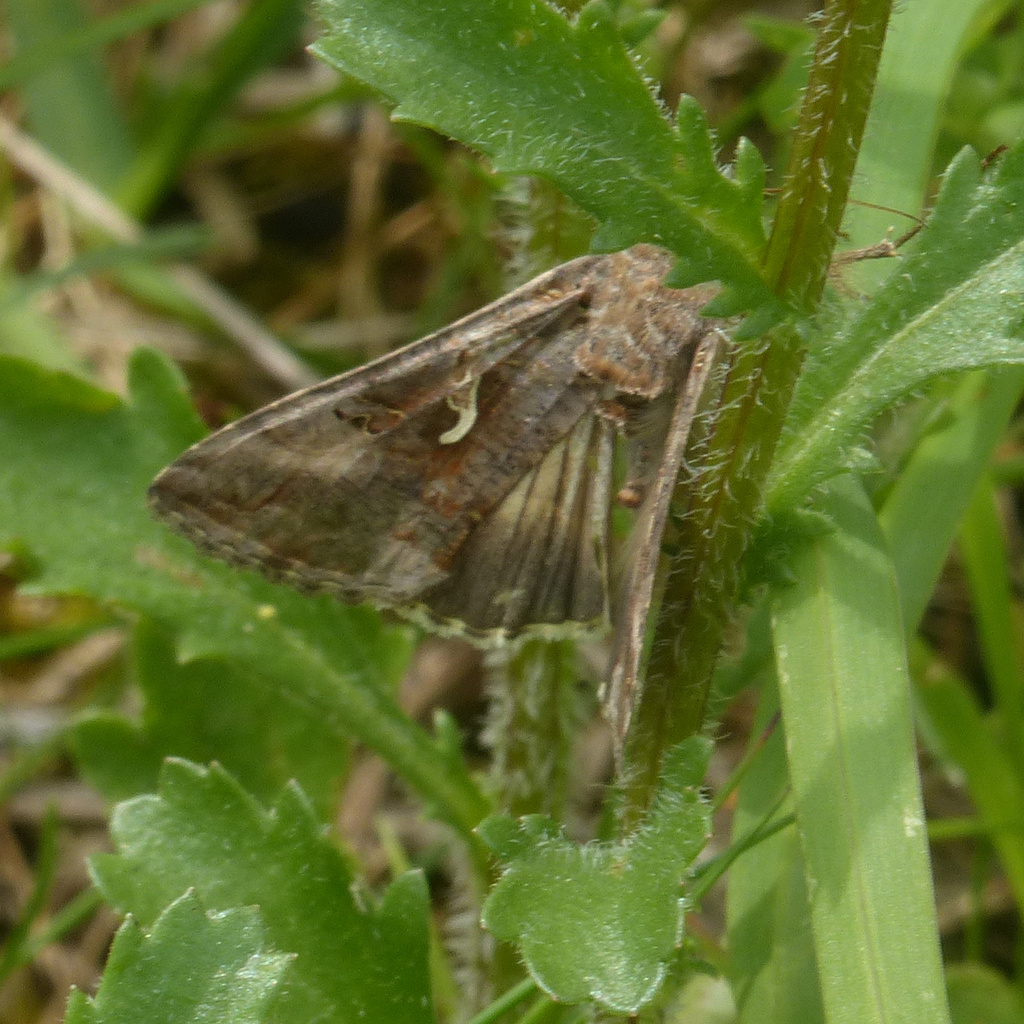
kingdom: Animalia
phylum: Arthropoda
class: Insecta
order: Lepidoptera
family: Noctuidae
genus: Autographa
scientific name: Autographa gamma
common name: Silver y
